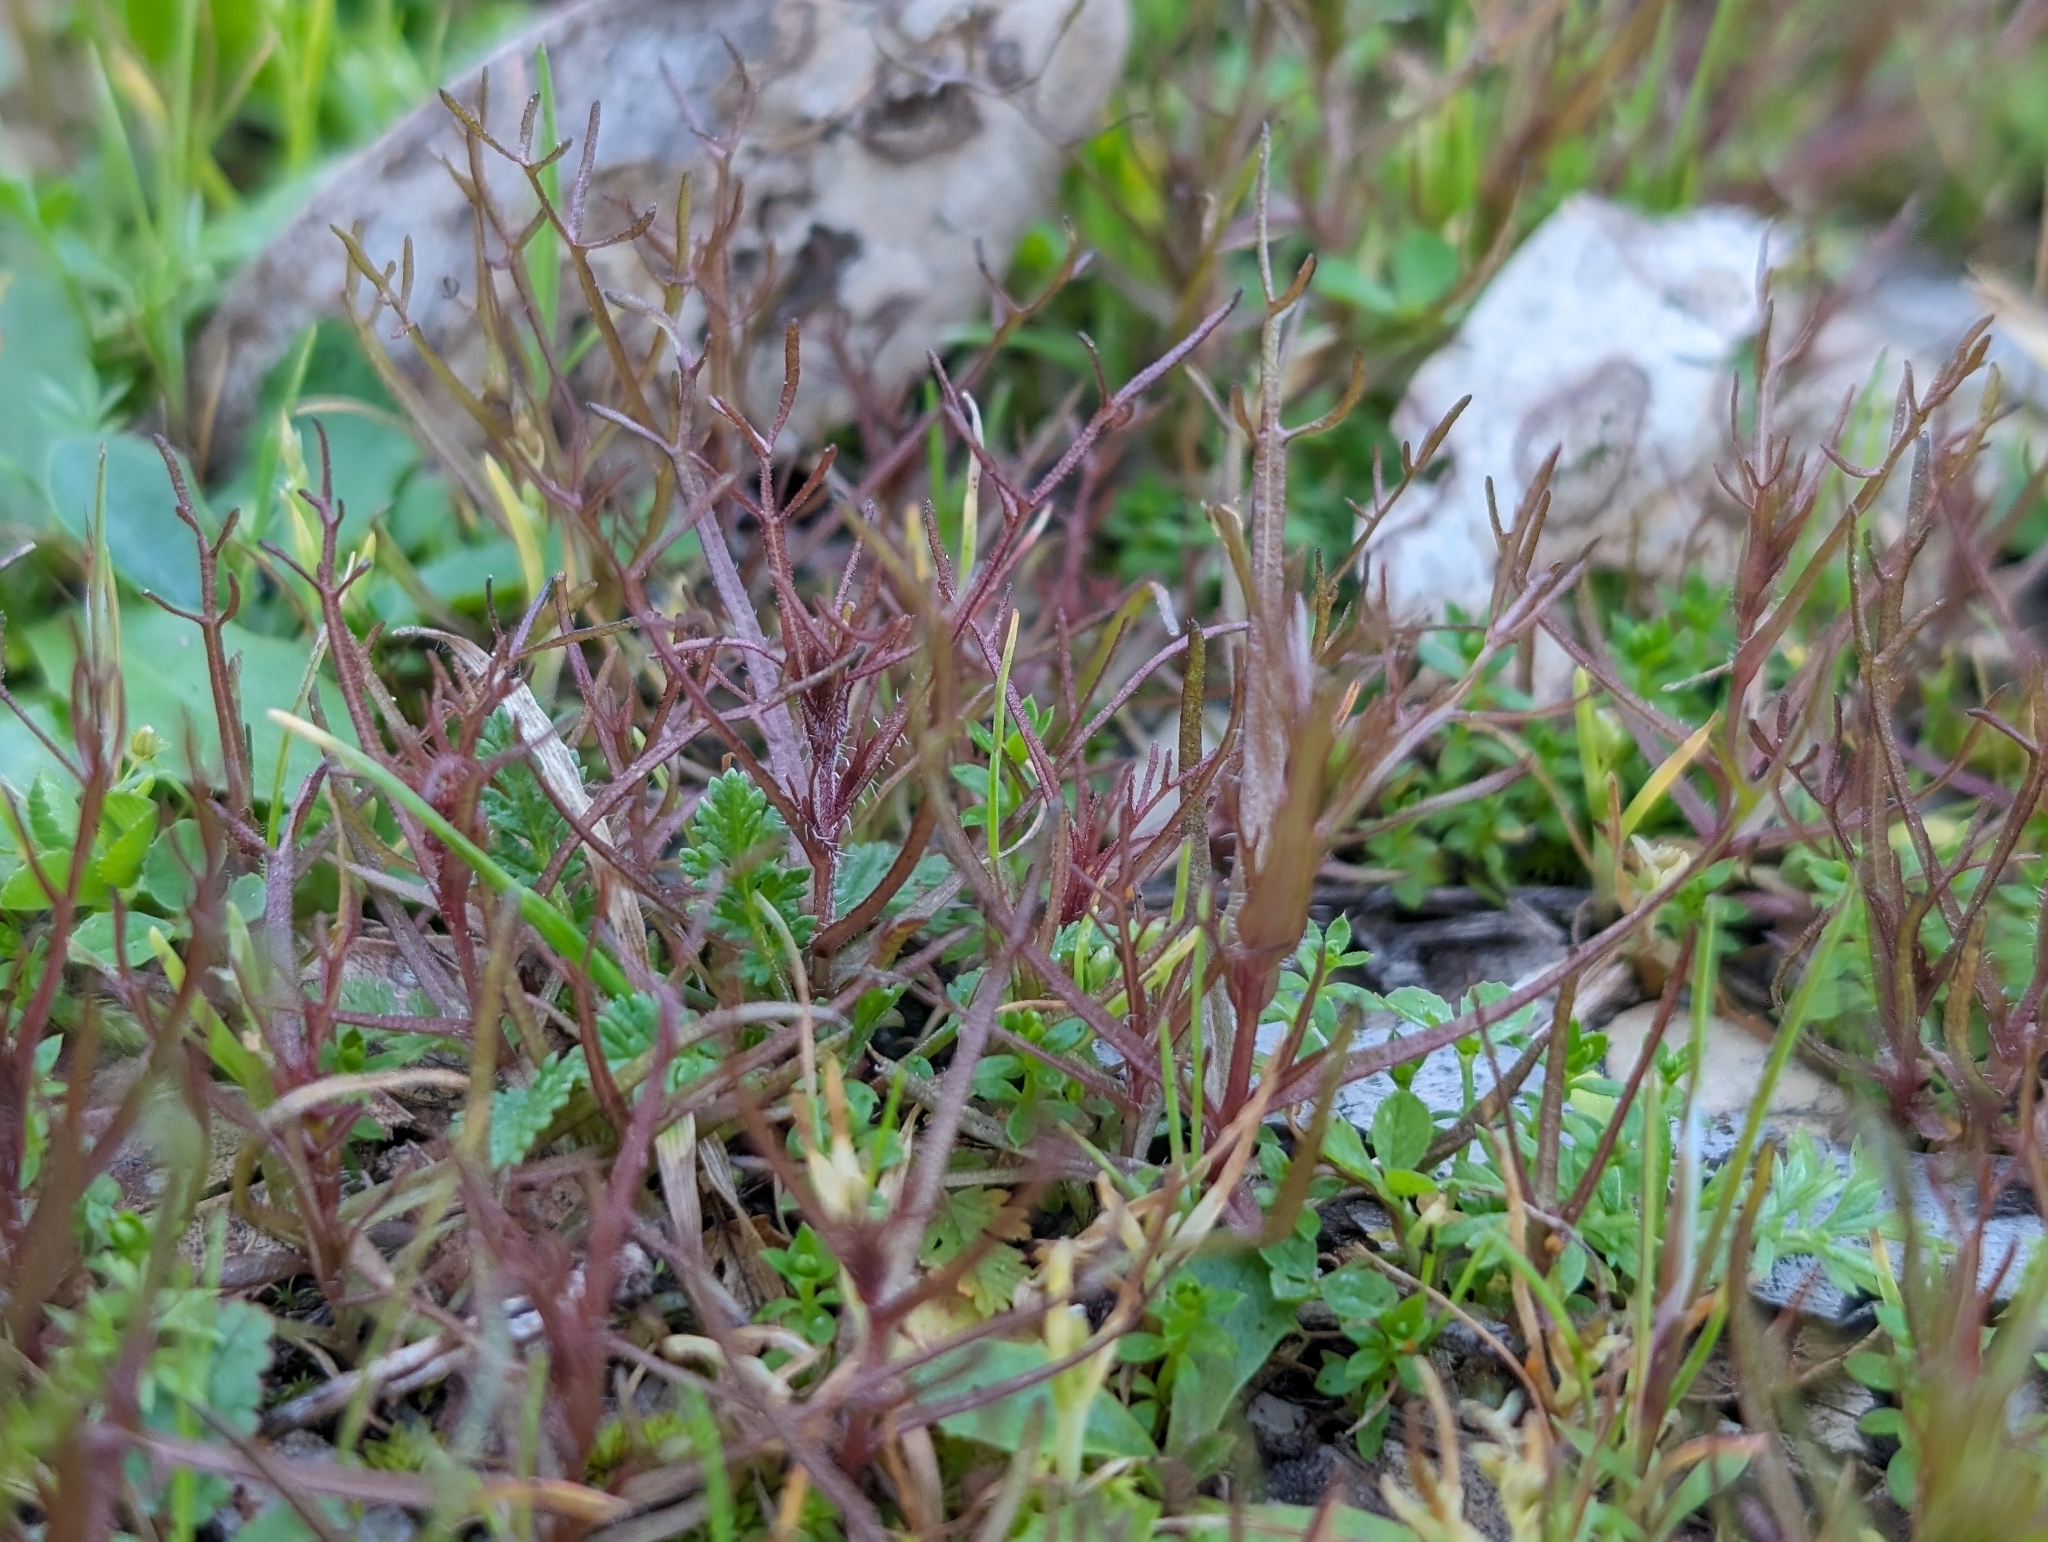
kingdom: Plantae
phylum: Tracheophyta
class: Magnoliopsida
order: Lamiales
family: Orobanchaceae
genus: Triphysaria
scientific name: Triphysaria pusilla
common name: Dwarf false owl-clover
